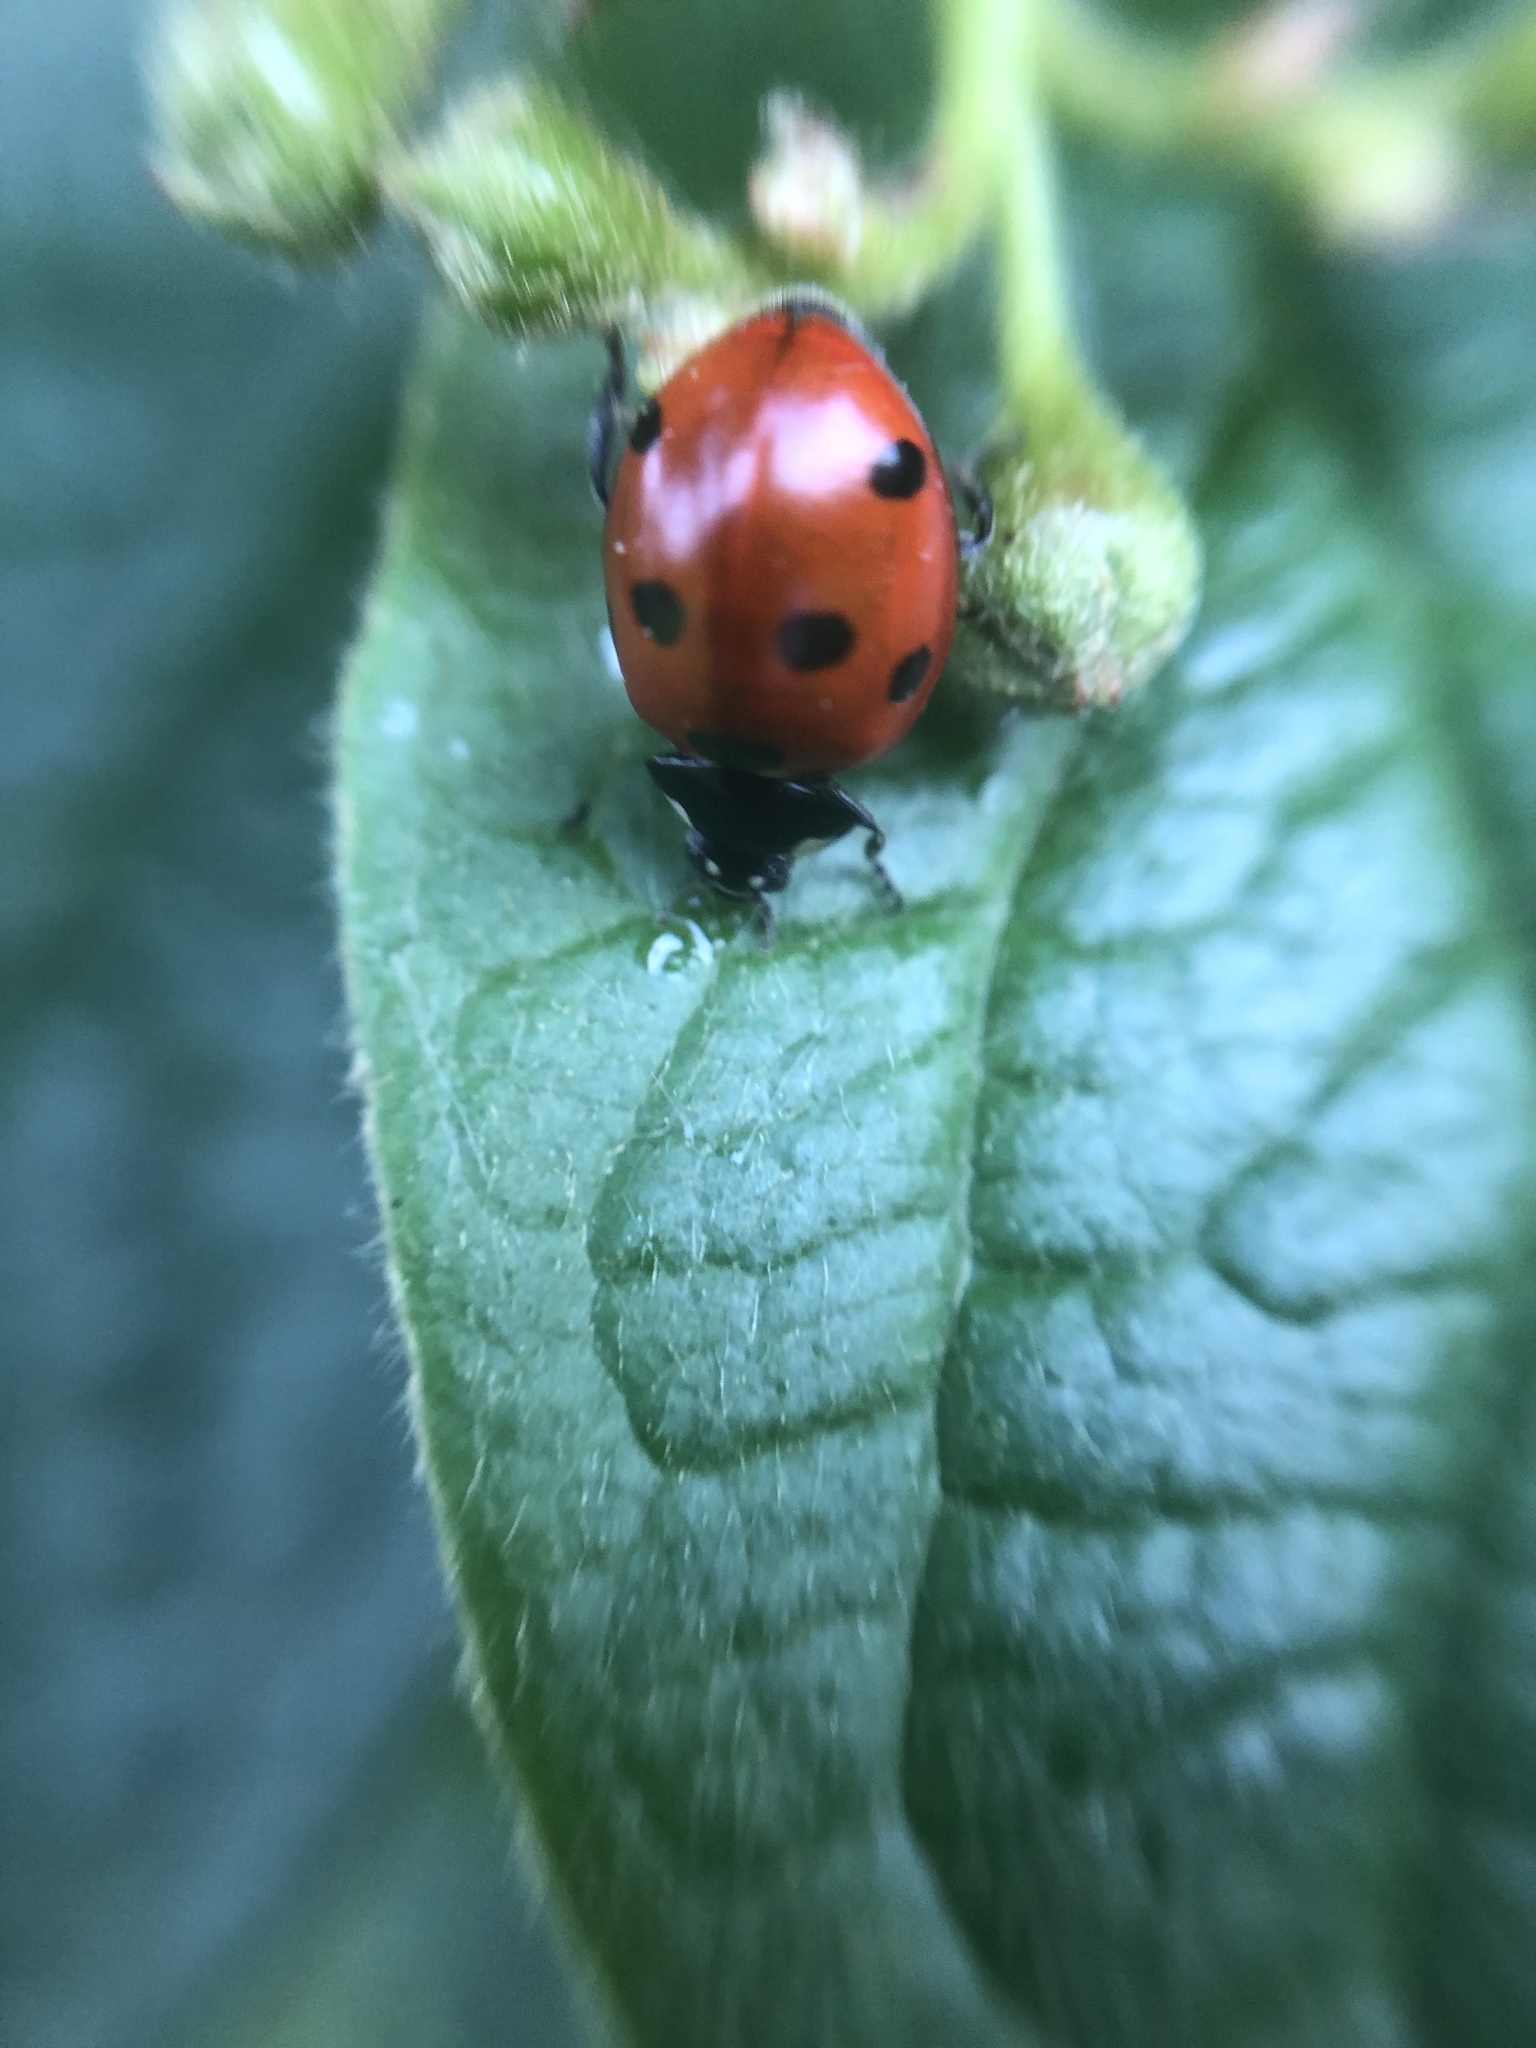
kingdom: Animalia
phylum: Arthropoda
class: Insecta
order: Coleoptera
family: Coccinellidae
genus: Coccinella
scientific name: Coccinella septempunctata
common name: Sevenspotted lady beetle
